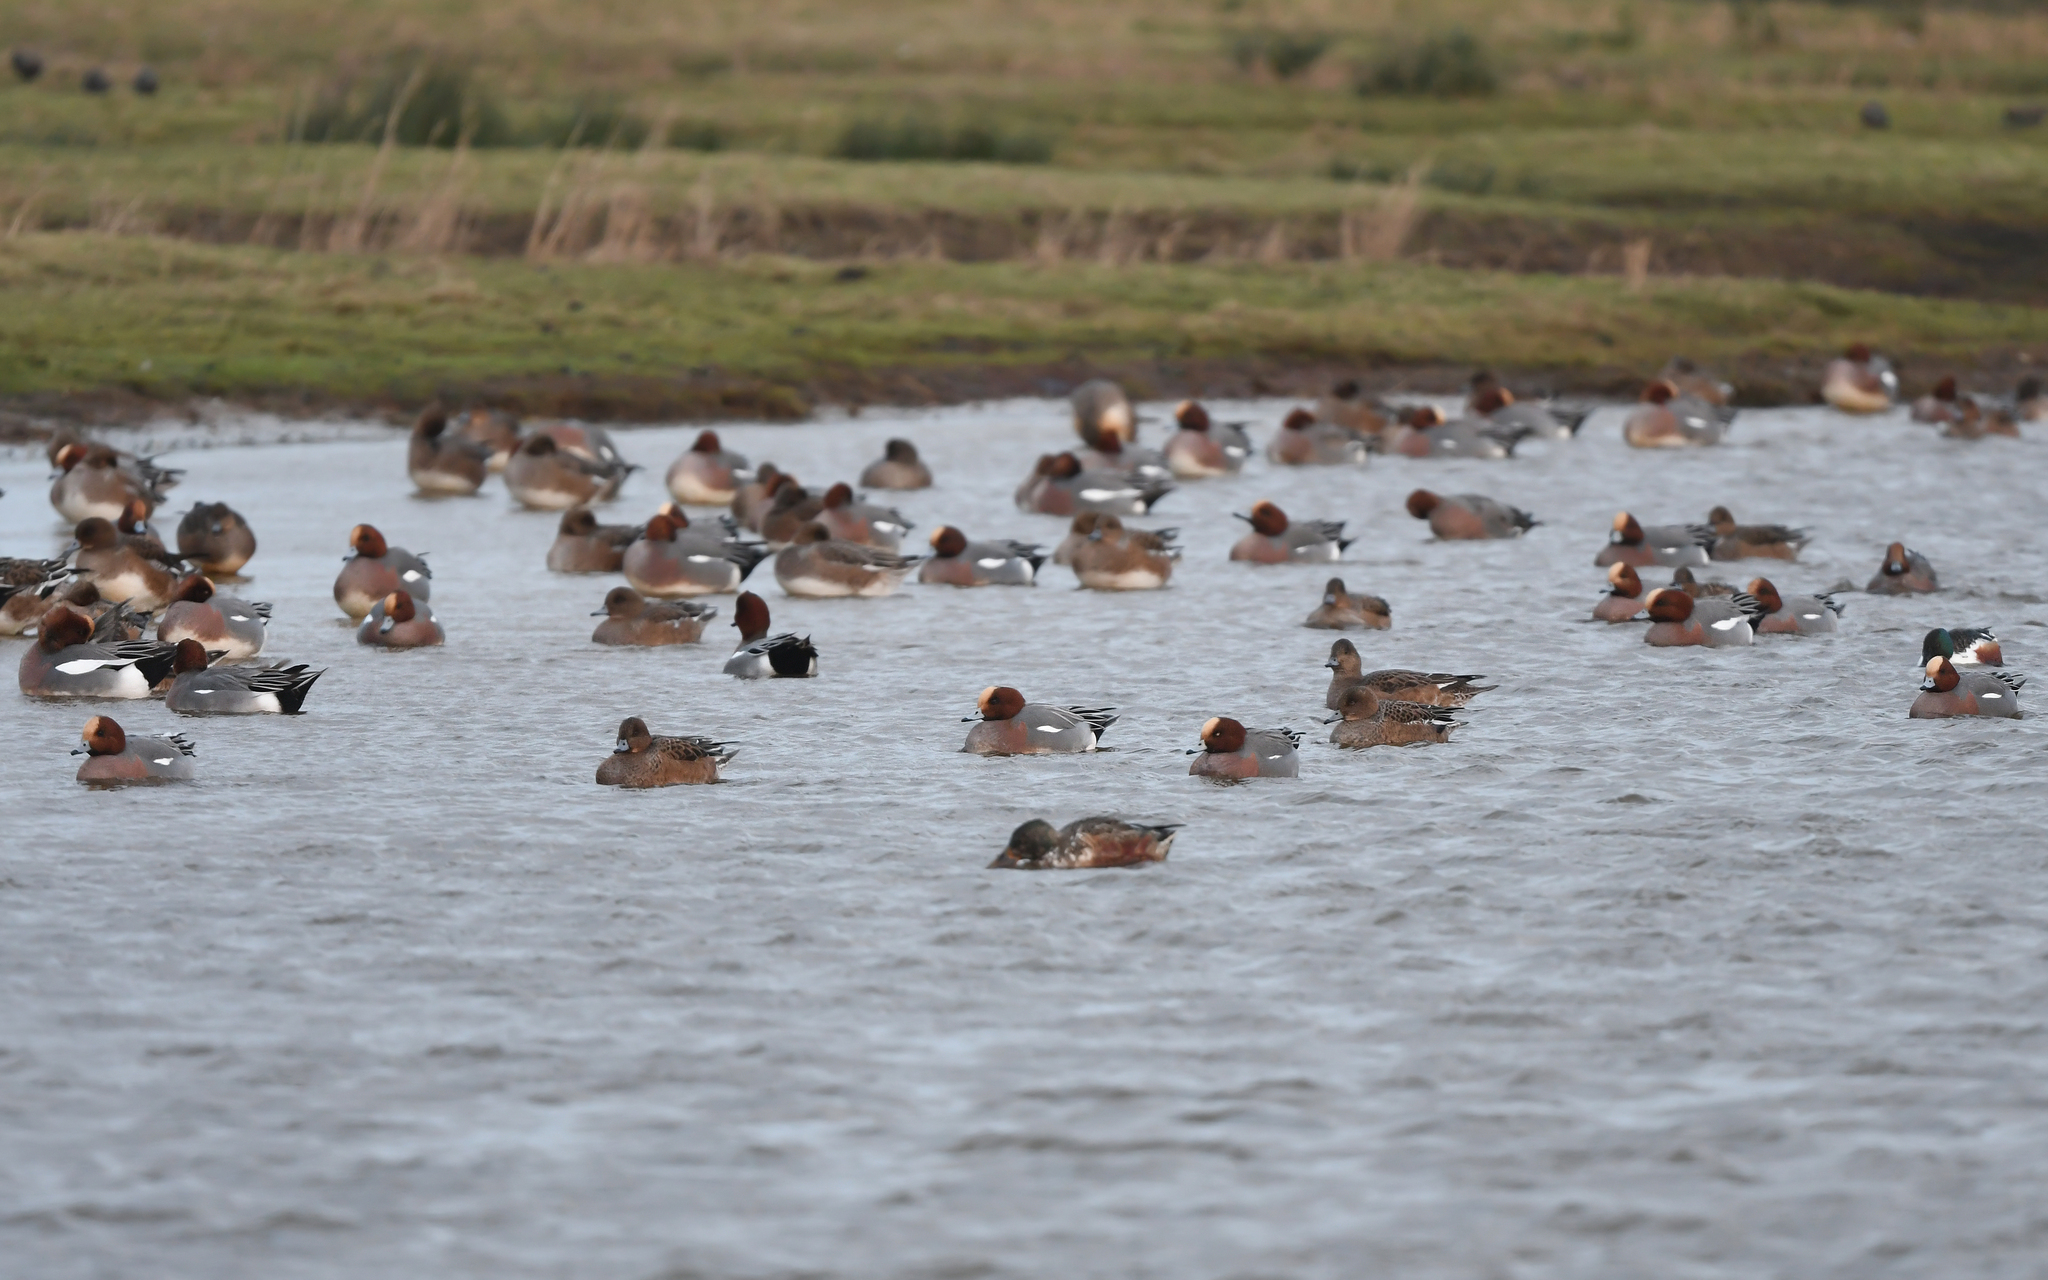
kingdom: Animalia
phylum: Chordata
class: Aves
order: Anseriformes
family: Anatidae
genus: Mareca
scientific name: Mareca penelope
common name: Eurasian wigeon
